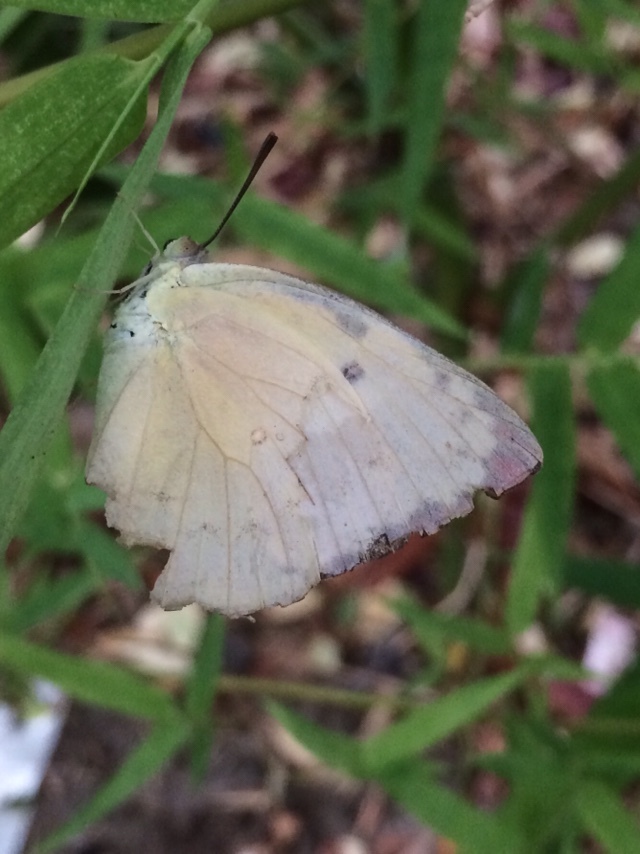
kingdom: Animalia
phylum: Arthropoda
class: Insecta
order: Lepidoptera
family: Pieridae
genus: Catopsilia
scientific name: Catopsilia pomona
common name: Common emigrant
